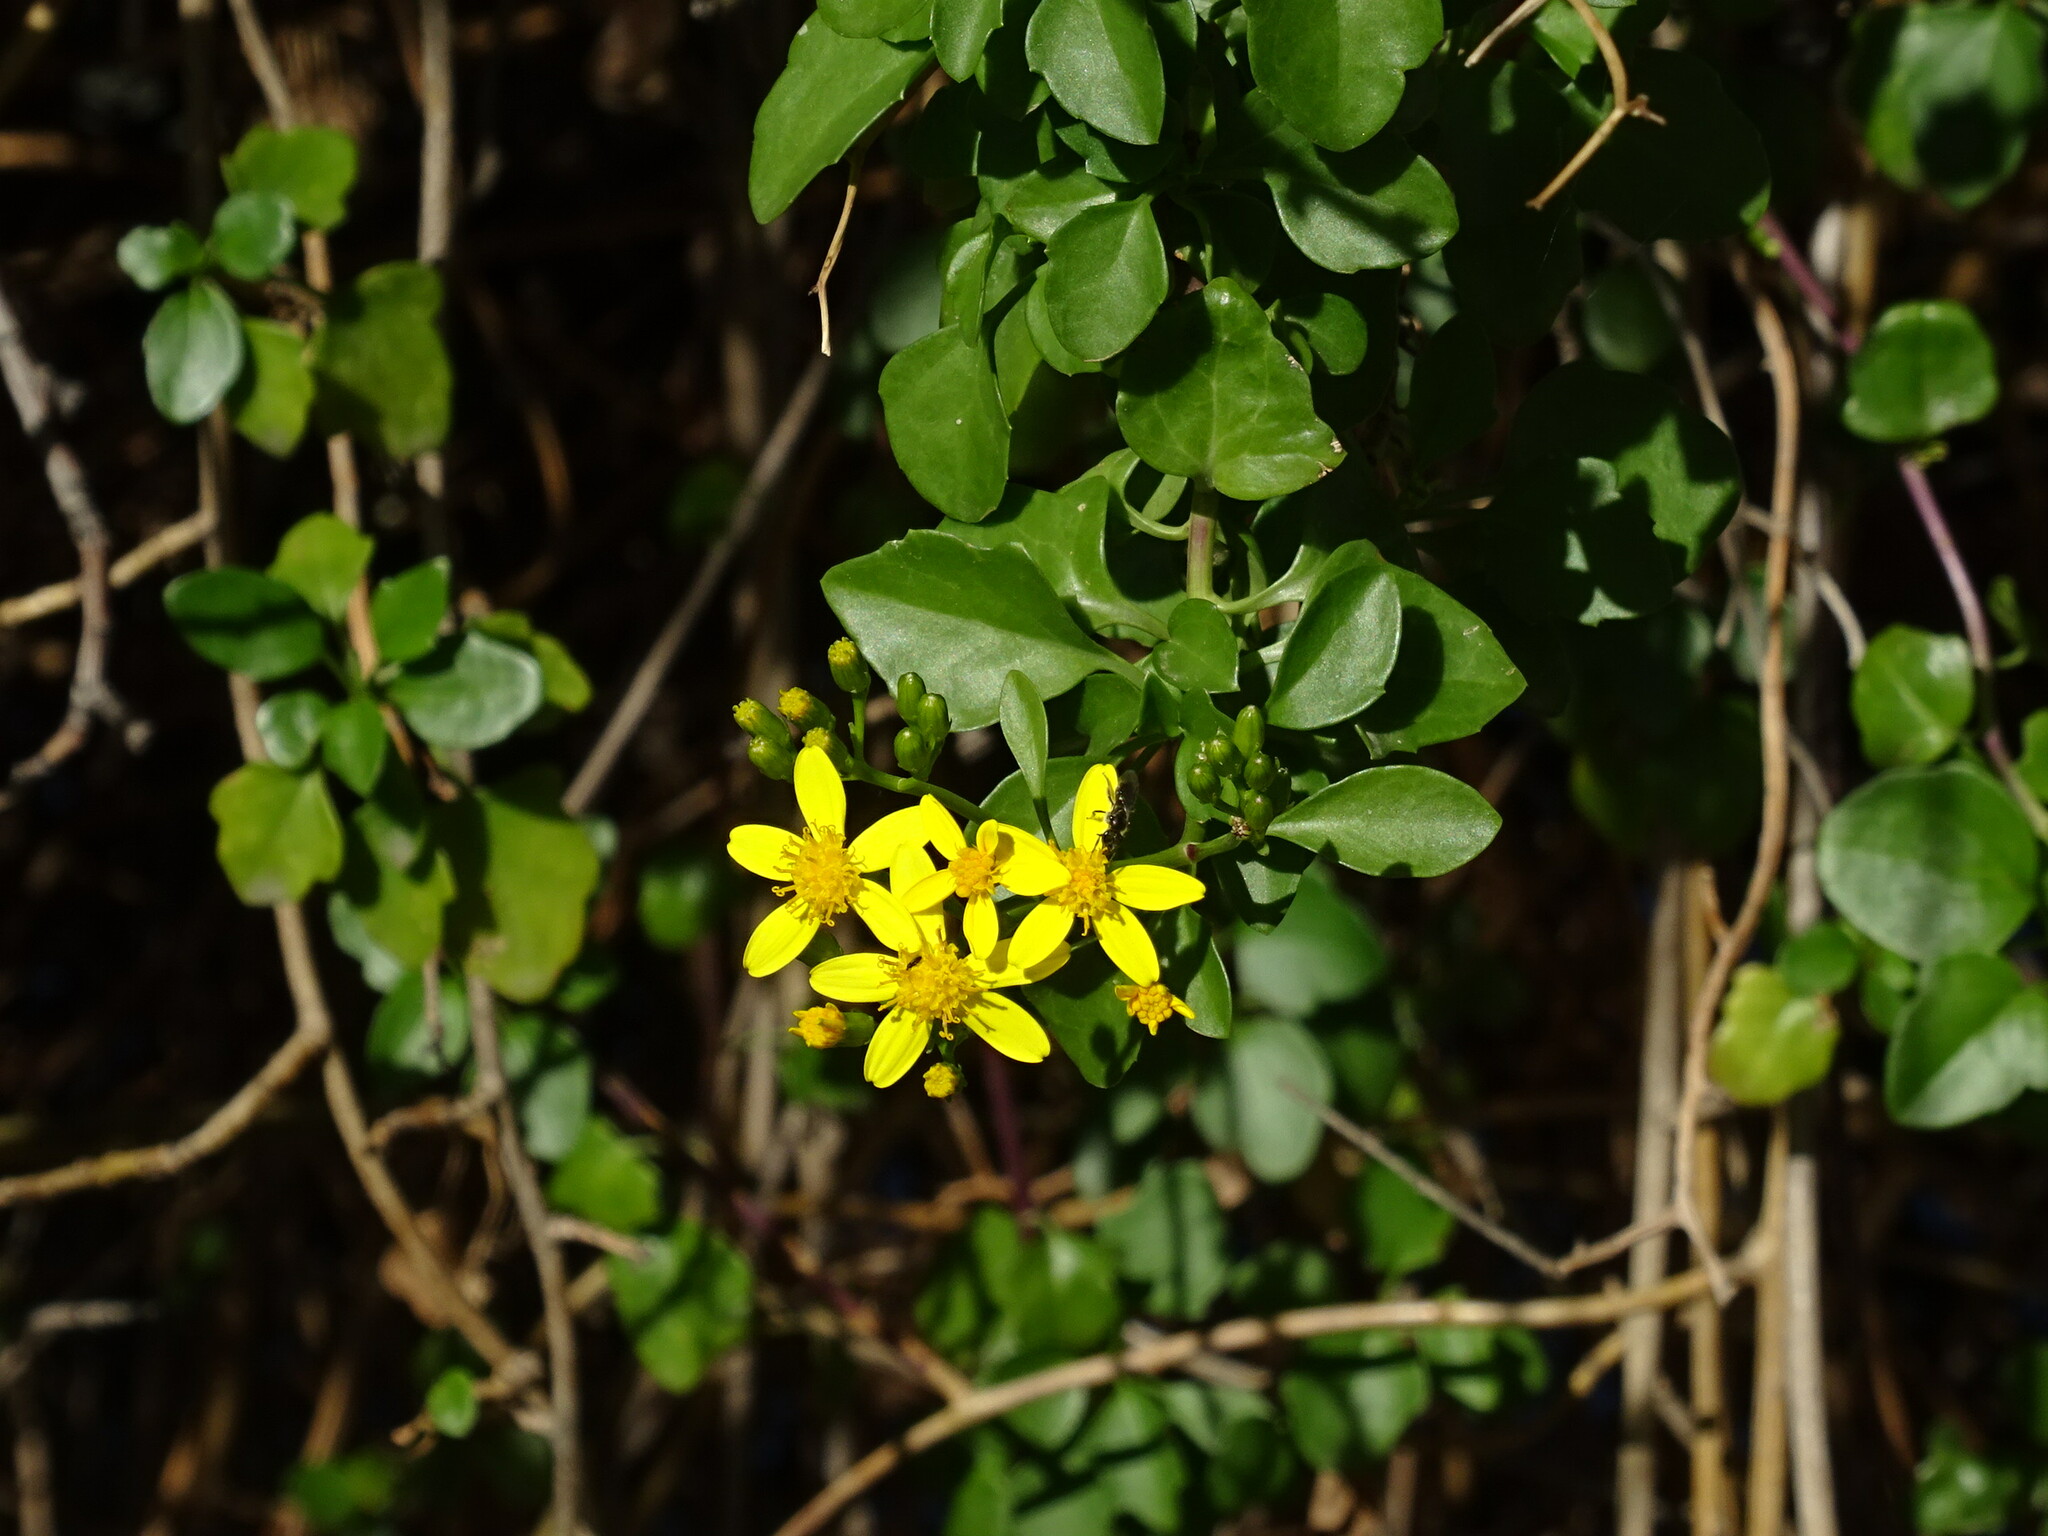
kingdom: Plantae
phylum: Tracheophyta
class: Magnoliopsida
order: Asterales
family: Asteraceae
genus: Senecio
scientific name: Senecio angulatus
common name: Climbing groundsel
